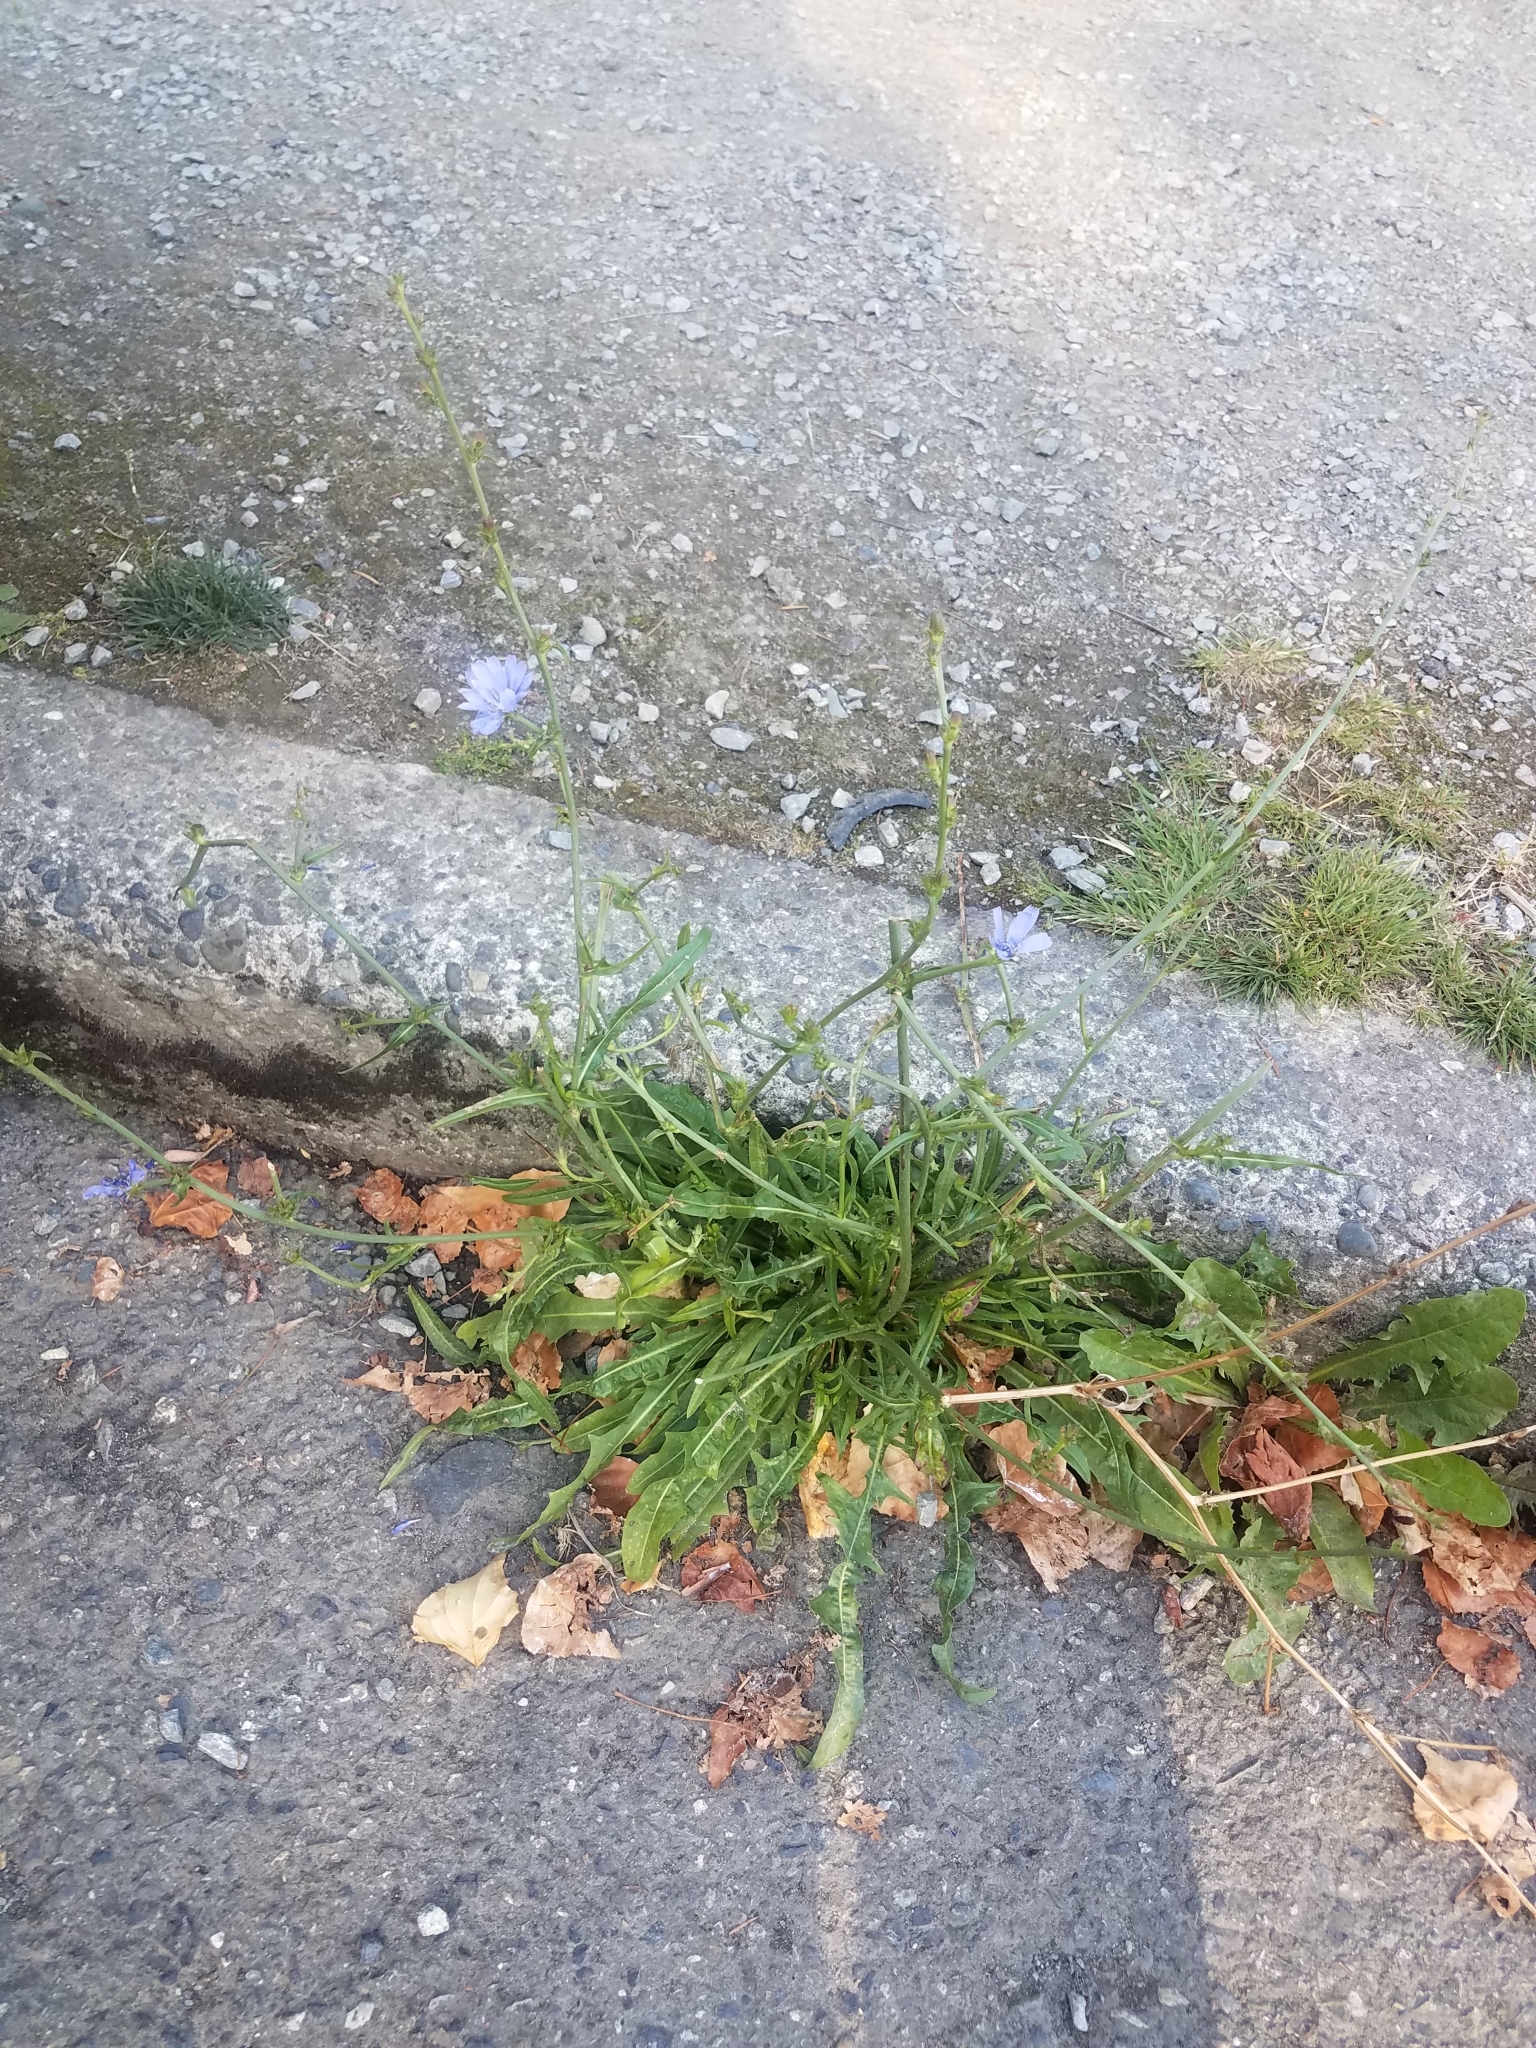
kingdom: Plantae
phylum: Tracheophyta
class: Magnoliopsida
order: Asterales
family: Asteraceae
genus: Cichorium
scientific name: Cichorium intybus
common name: Chicory
